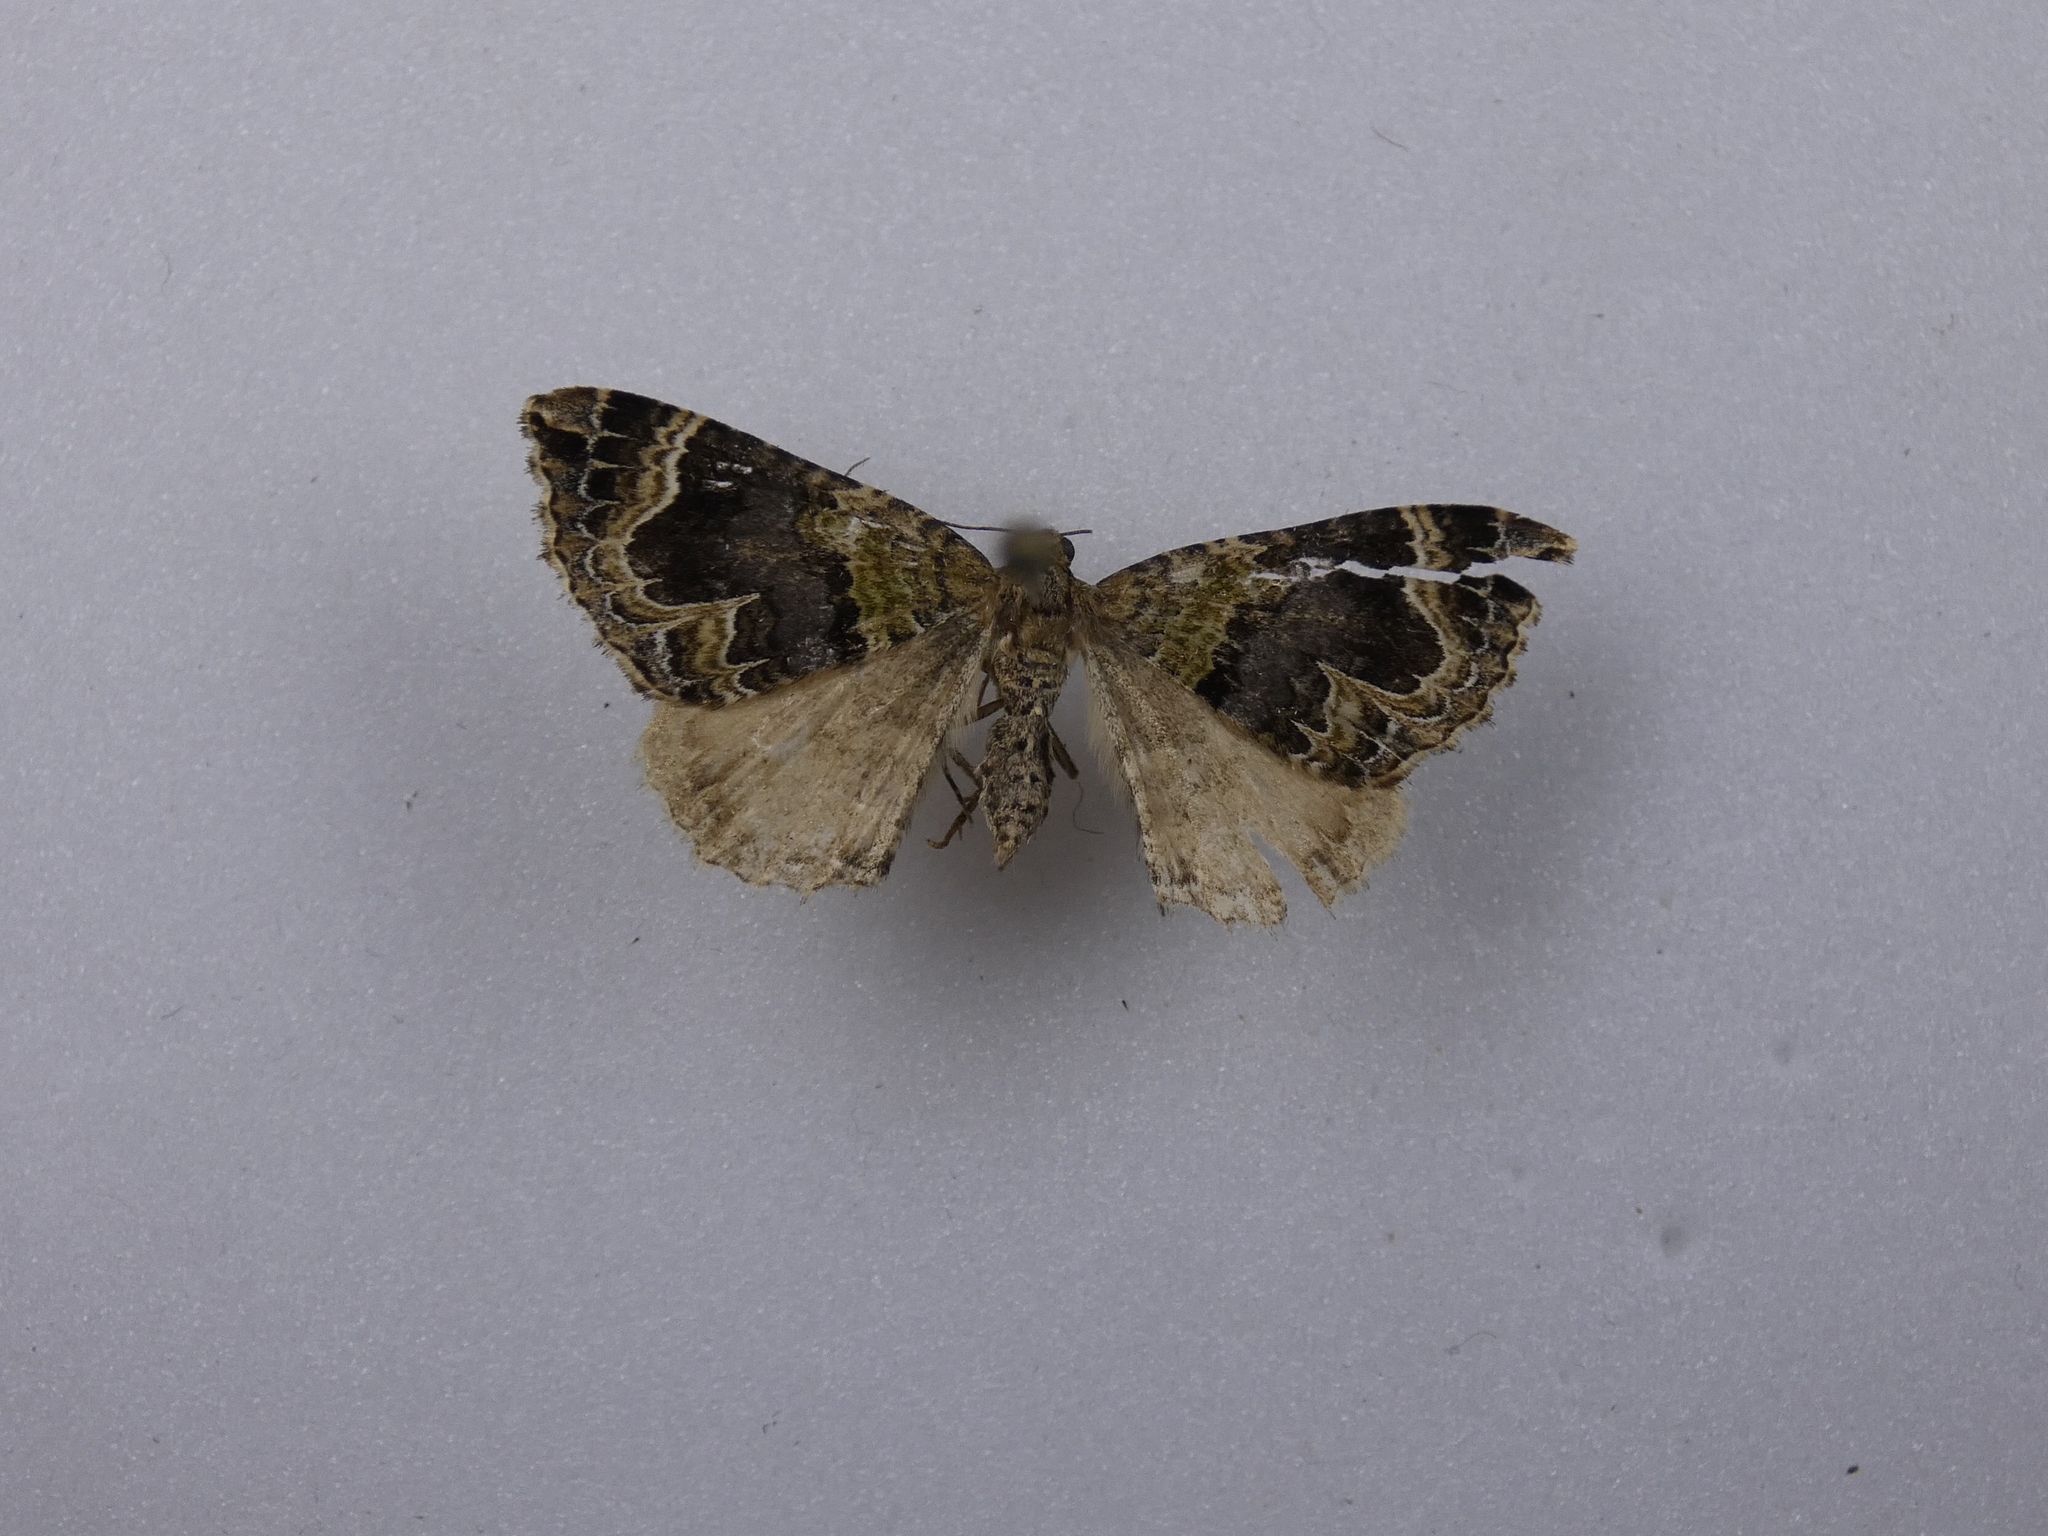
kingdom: Animalia
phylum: Arthropoda
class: Insecta
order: Lepidoptera
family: Geometridae
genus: Hydriomena
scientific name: Hydriomena rixata
